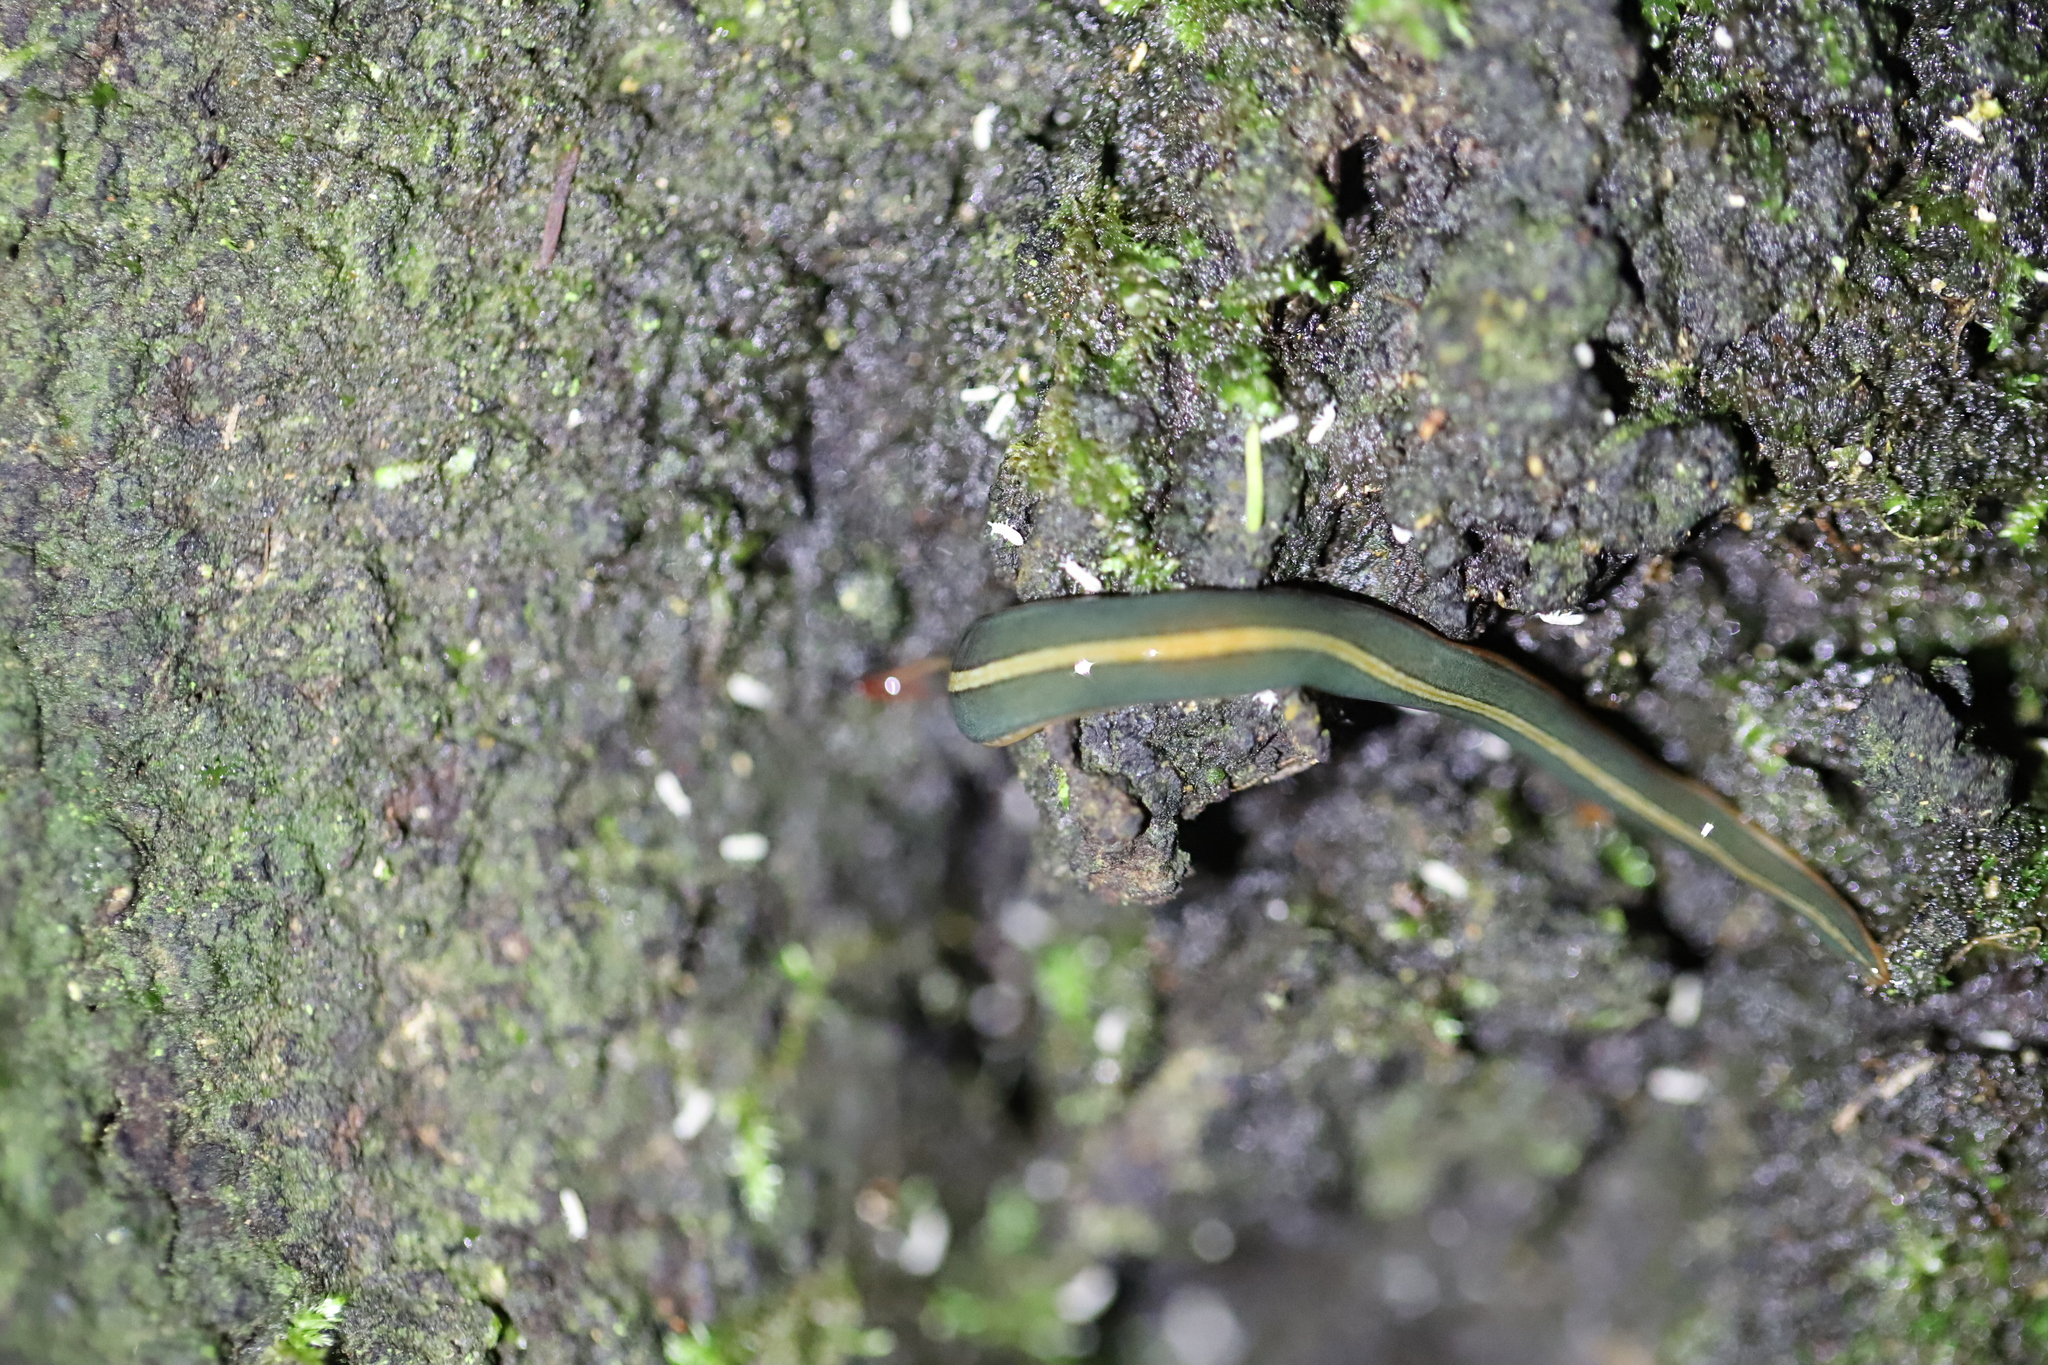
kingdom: Animalia
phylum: Platyhelminthes
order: Tricladida
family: Geoplanidae
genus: Lenkunya
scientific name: Lenkunya adae
